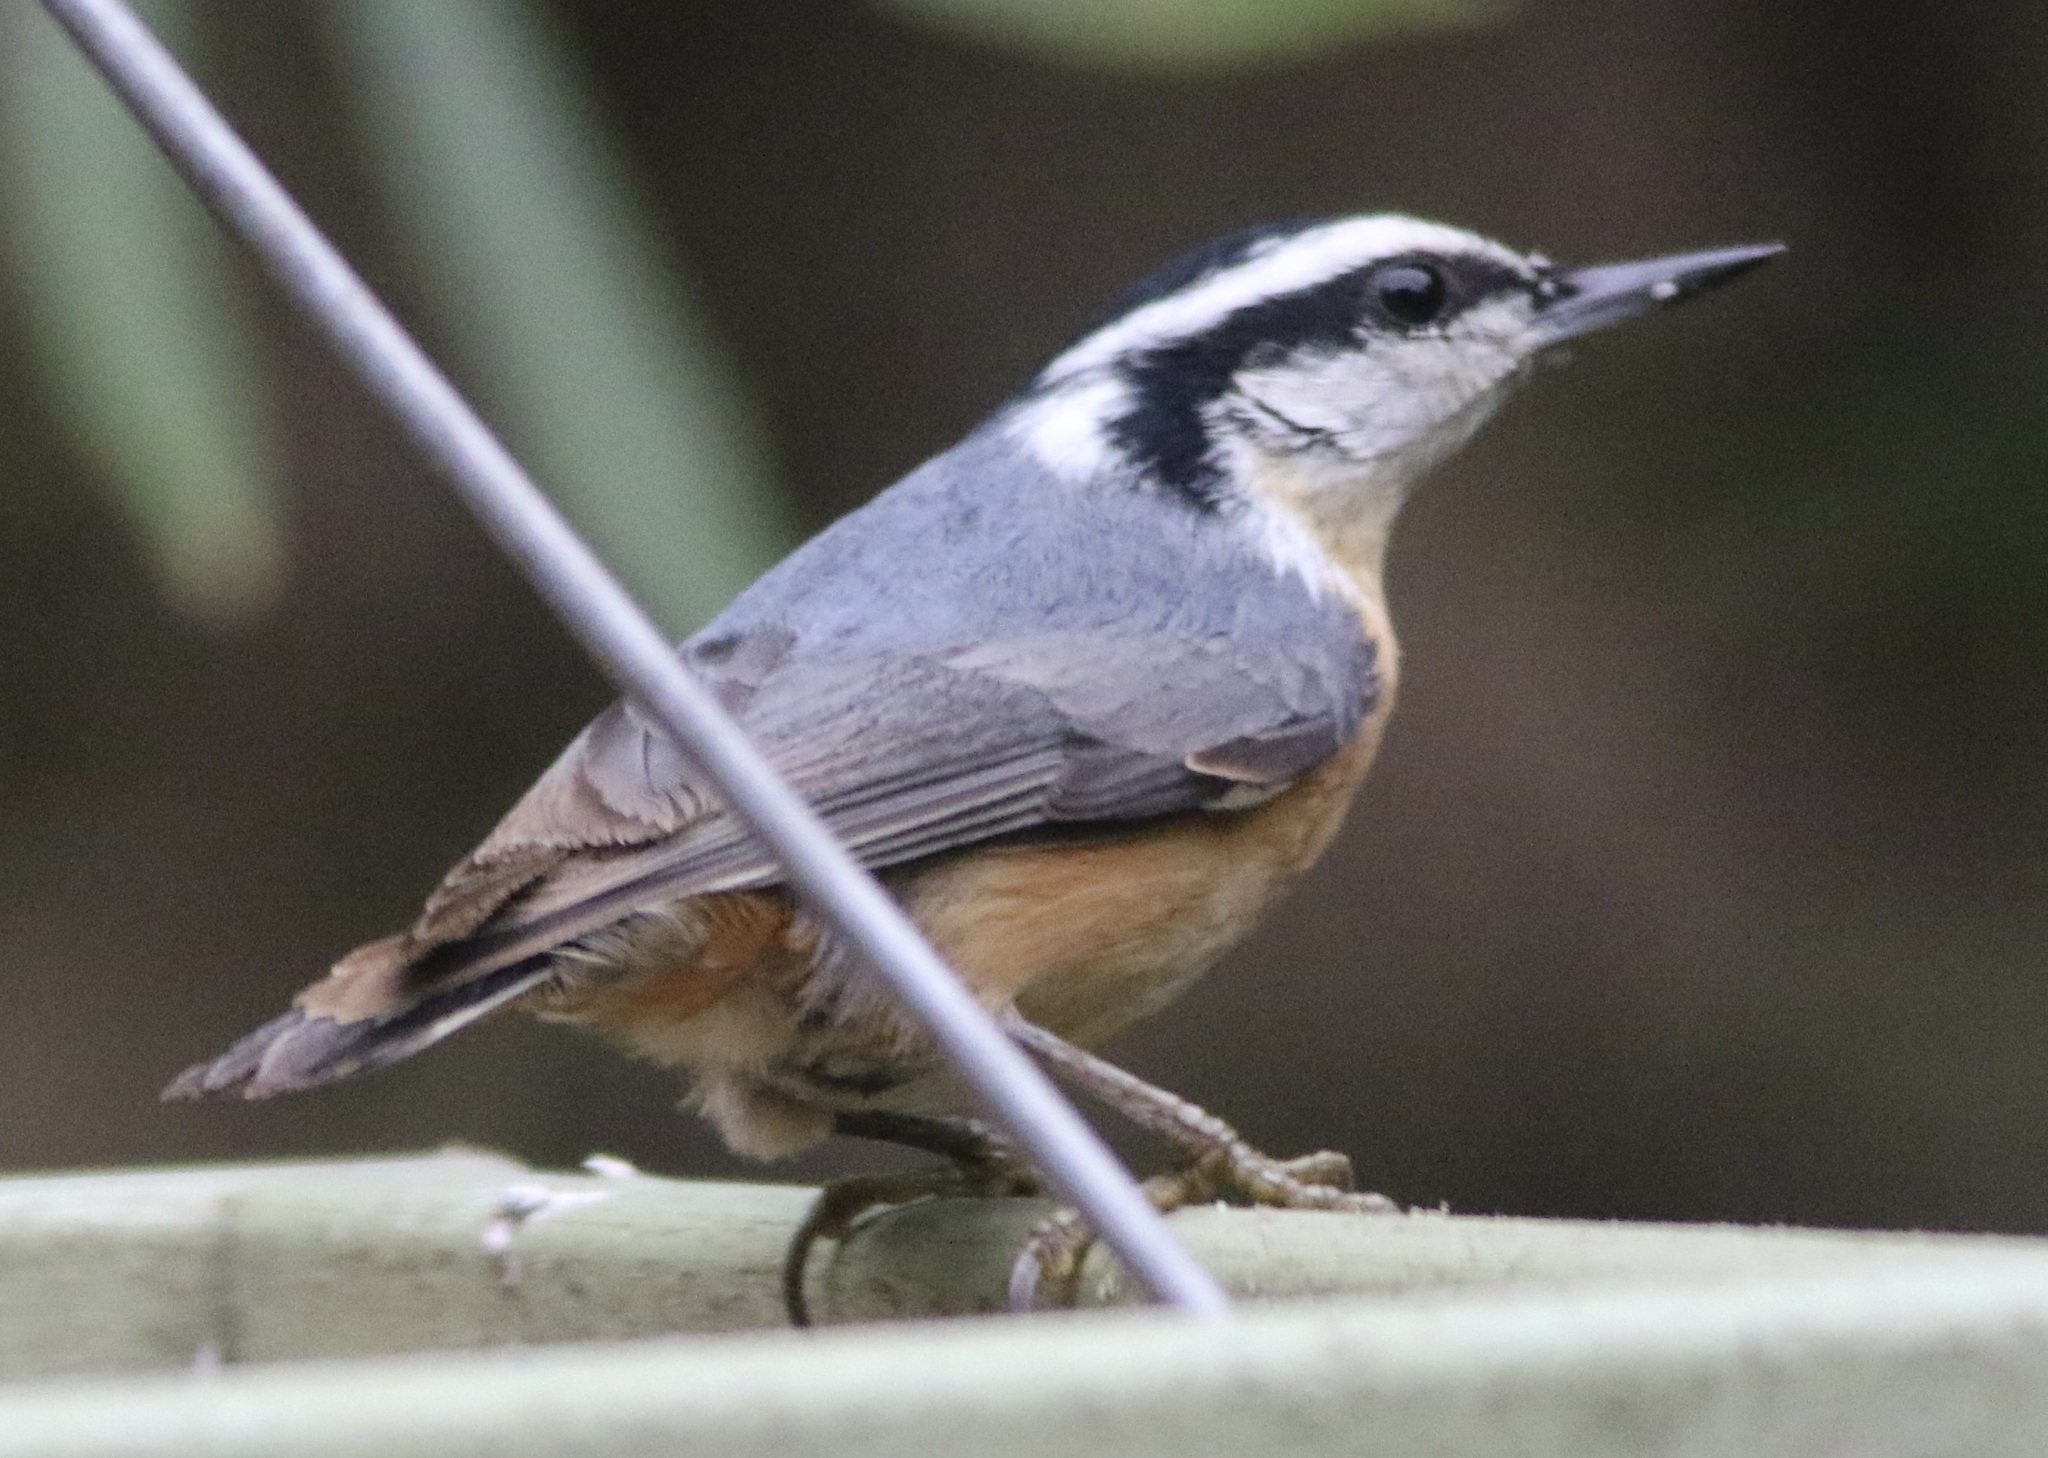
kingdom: Animalia
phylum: Chordata
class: Aves
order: Passeriformes
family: Sittidae
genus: Sitta
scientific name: Sitta canadensis
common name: Red-breasted nuthatch
